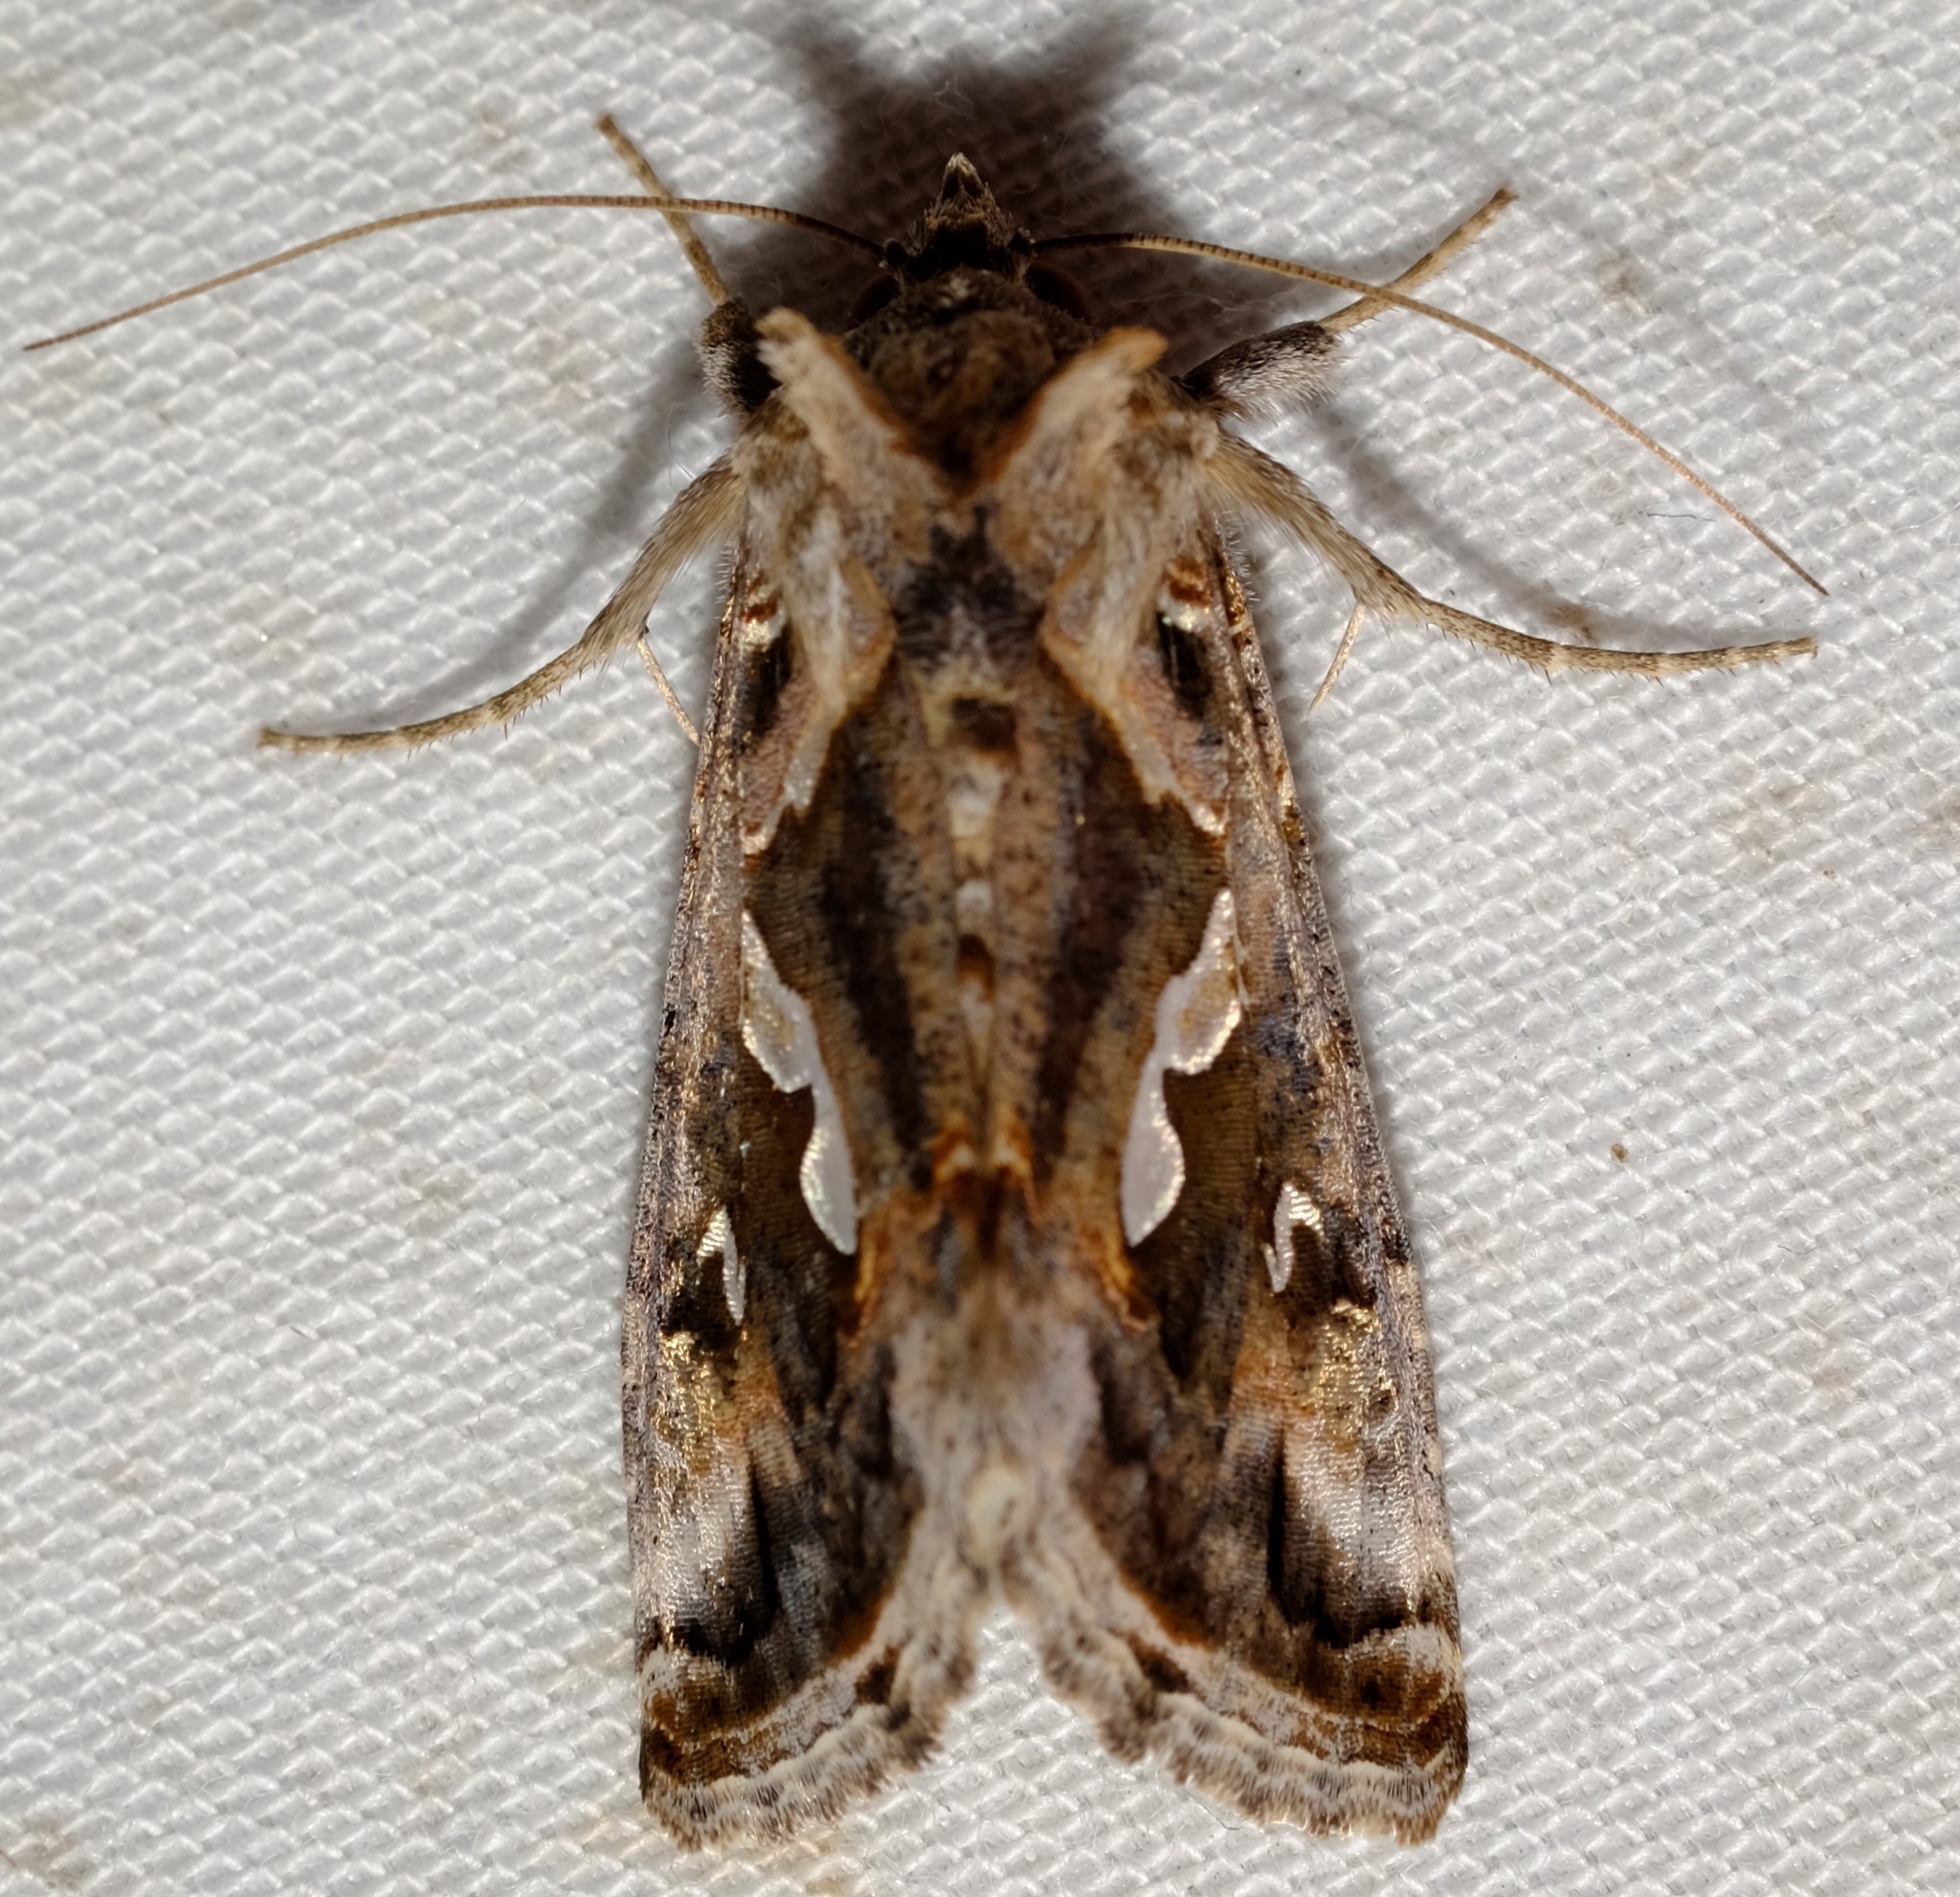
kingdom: Animalia
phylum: Arthropoda
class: Insecta
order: Lepidoptera
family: Noctuidae
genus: Chrysodeixis
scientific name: Chrysodeixis argentifera
